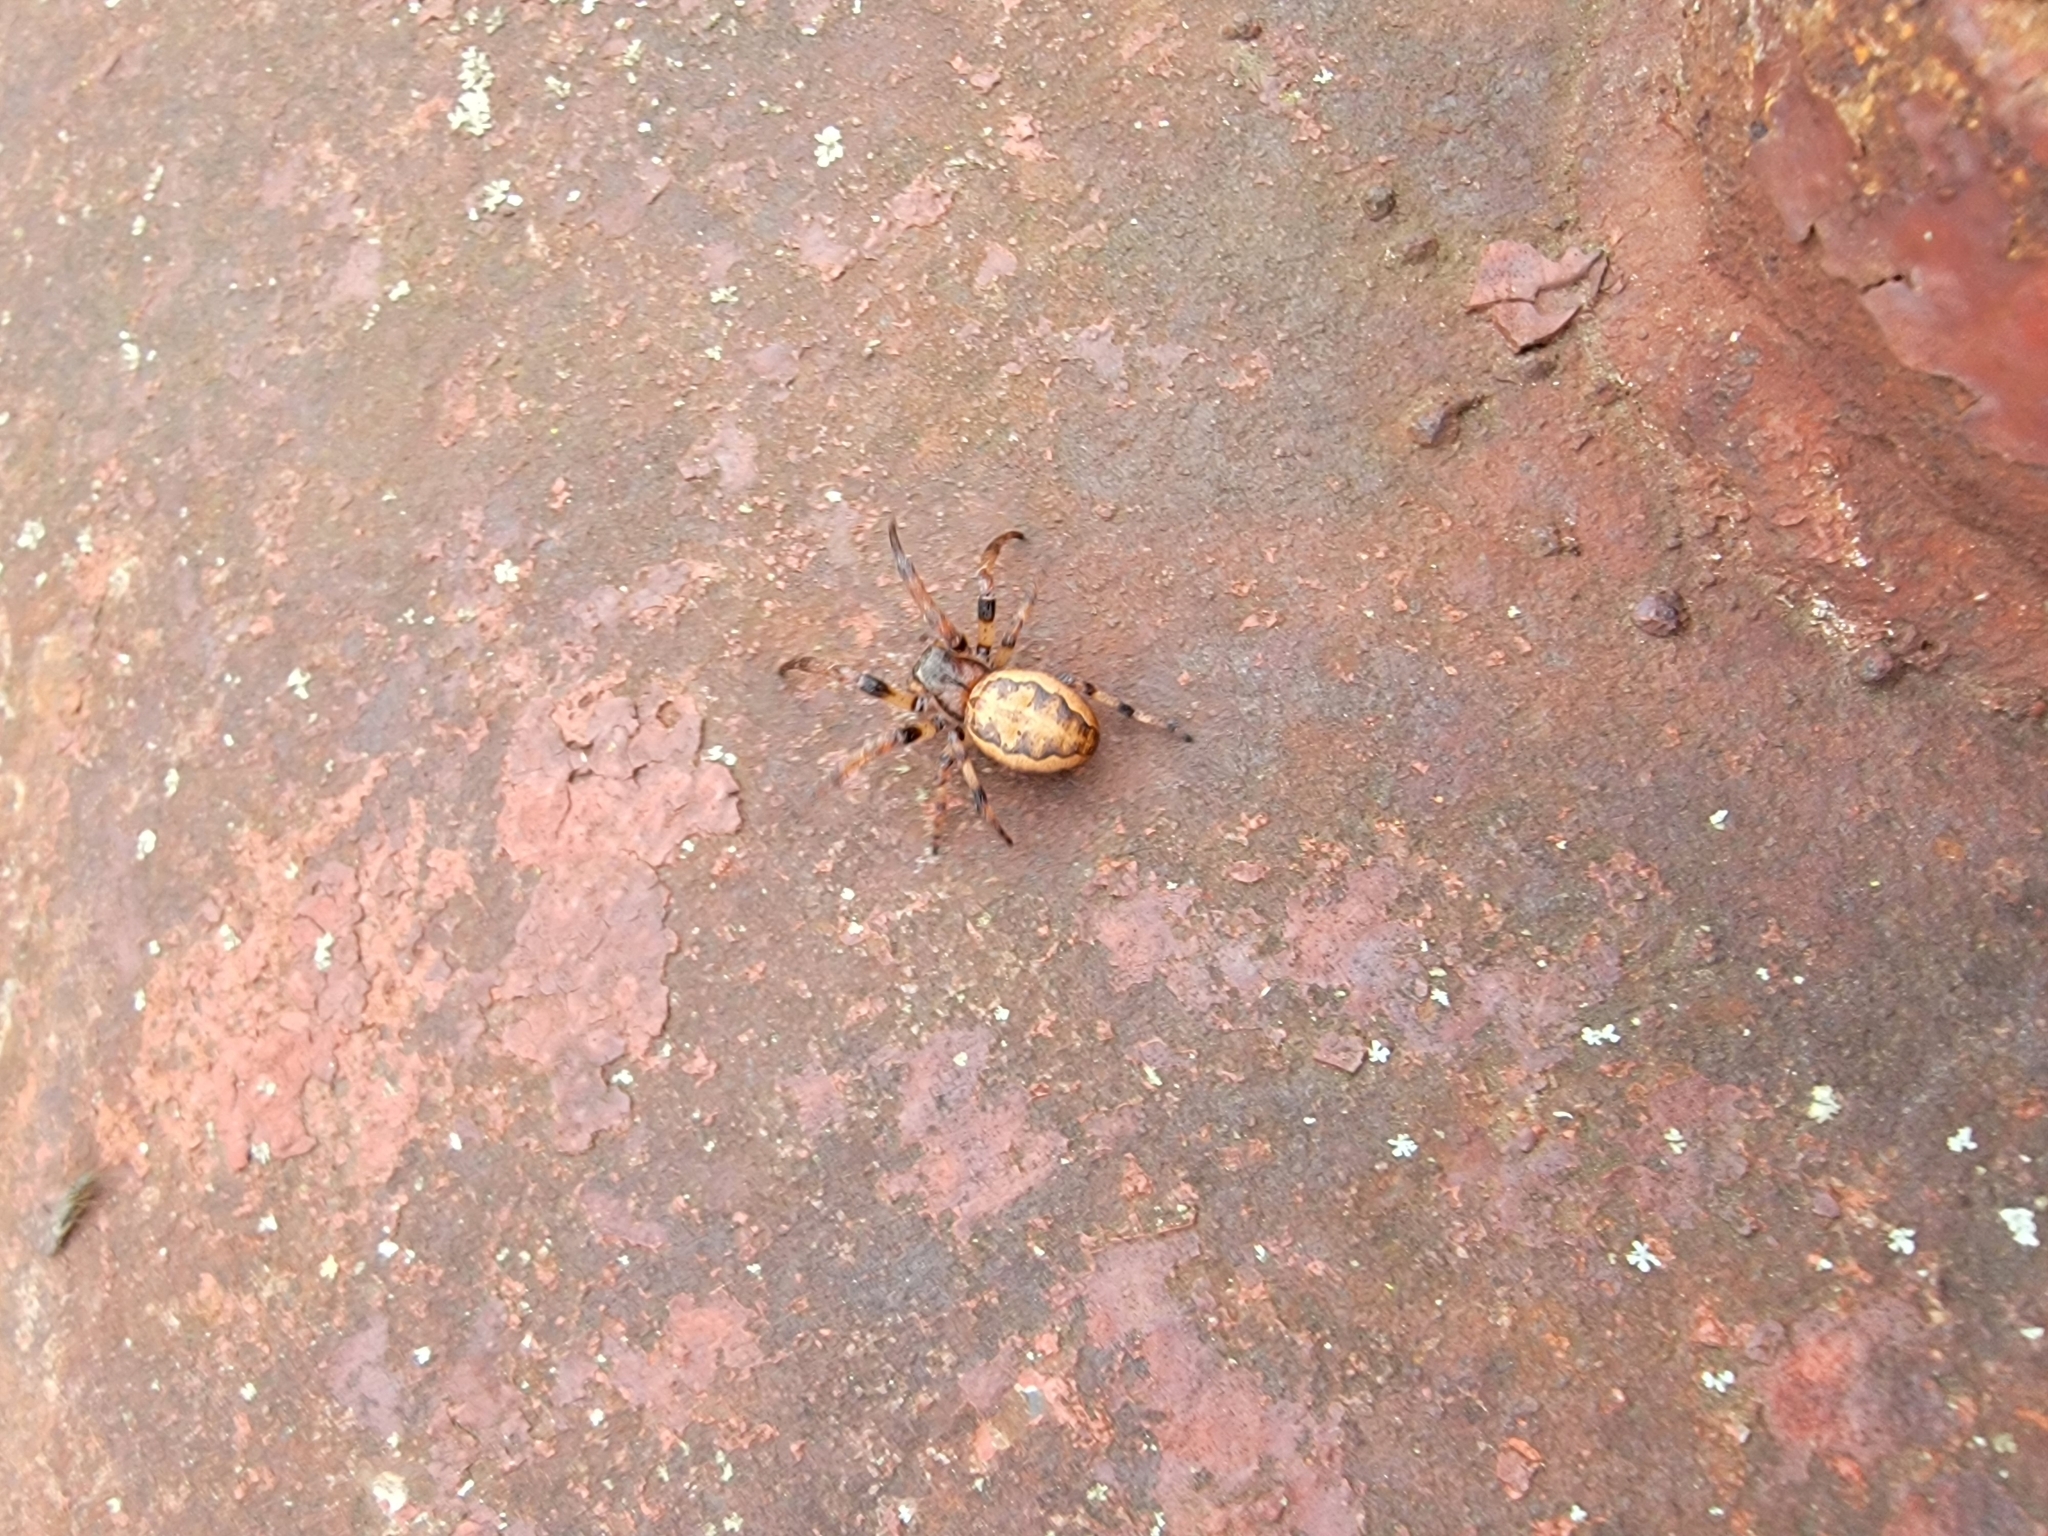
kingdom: Animalia
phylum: Arthropoda
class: Arachnida
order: Araneae
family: Araneidae
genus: Larinioides
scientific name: Larinioides cornutus
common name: Furrow orbweaver
